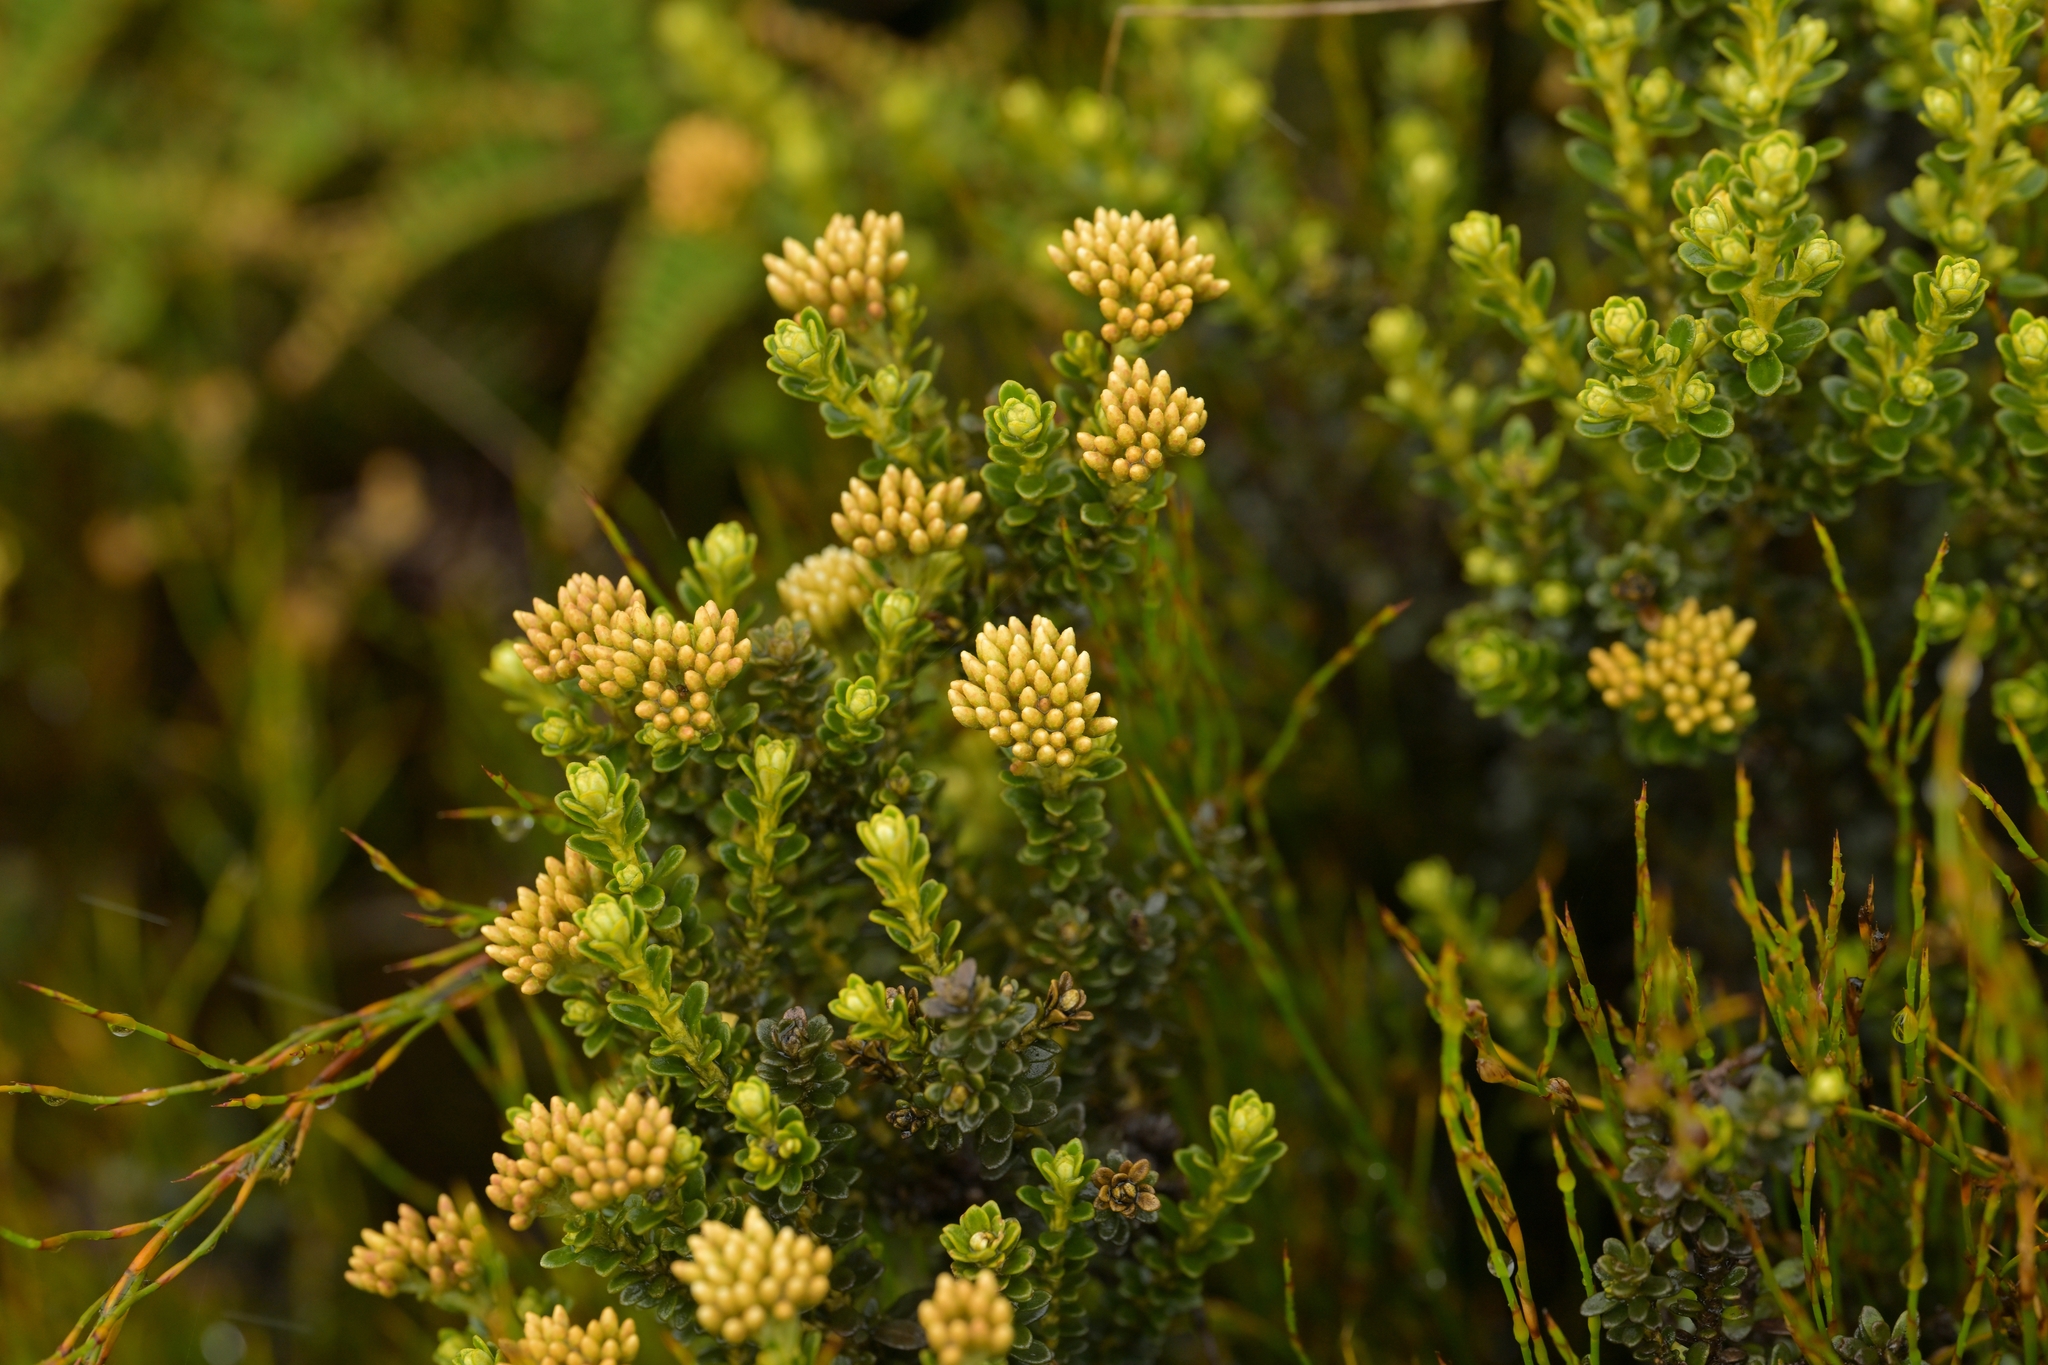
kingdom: Plantae
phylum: Tracheophyta
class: Magnoliopsida
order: Asterales
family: Asteraceae
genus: Ozothamnus
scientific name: Ozothamnus leptophyllus
